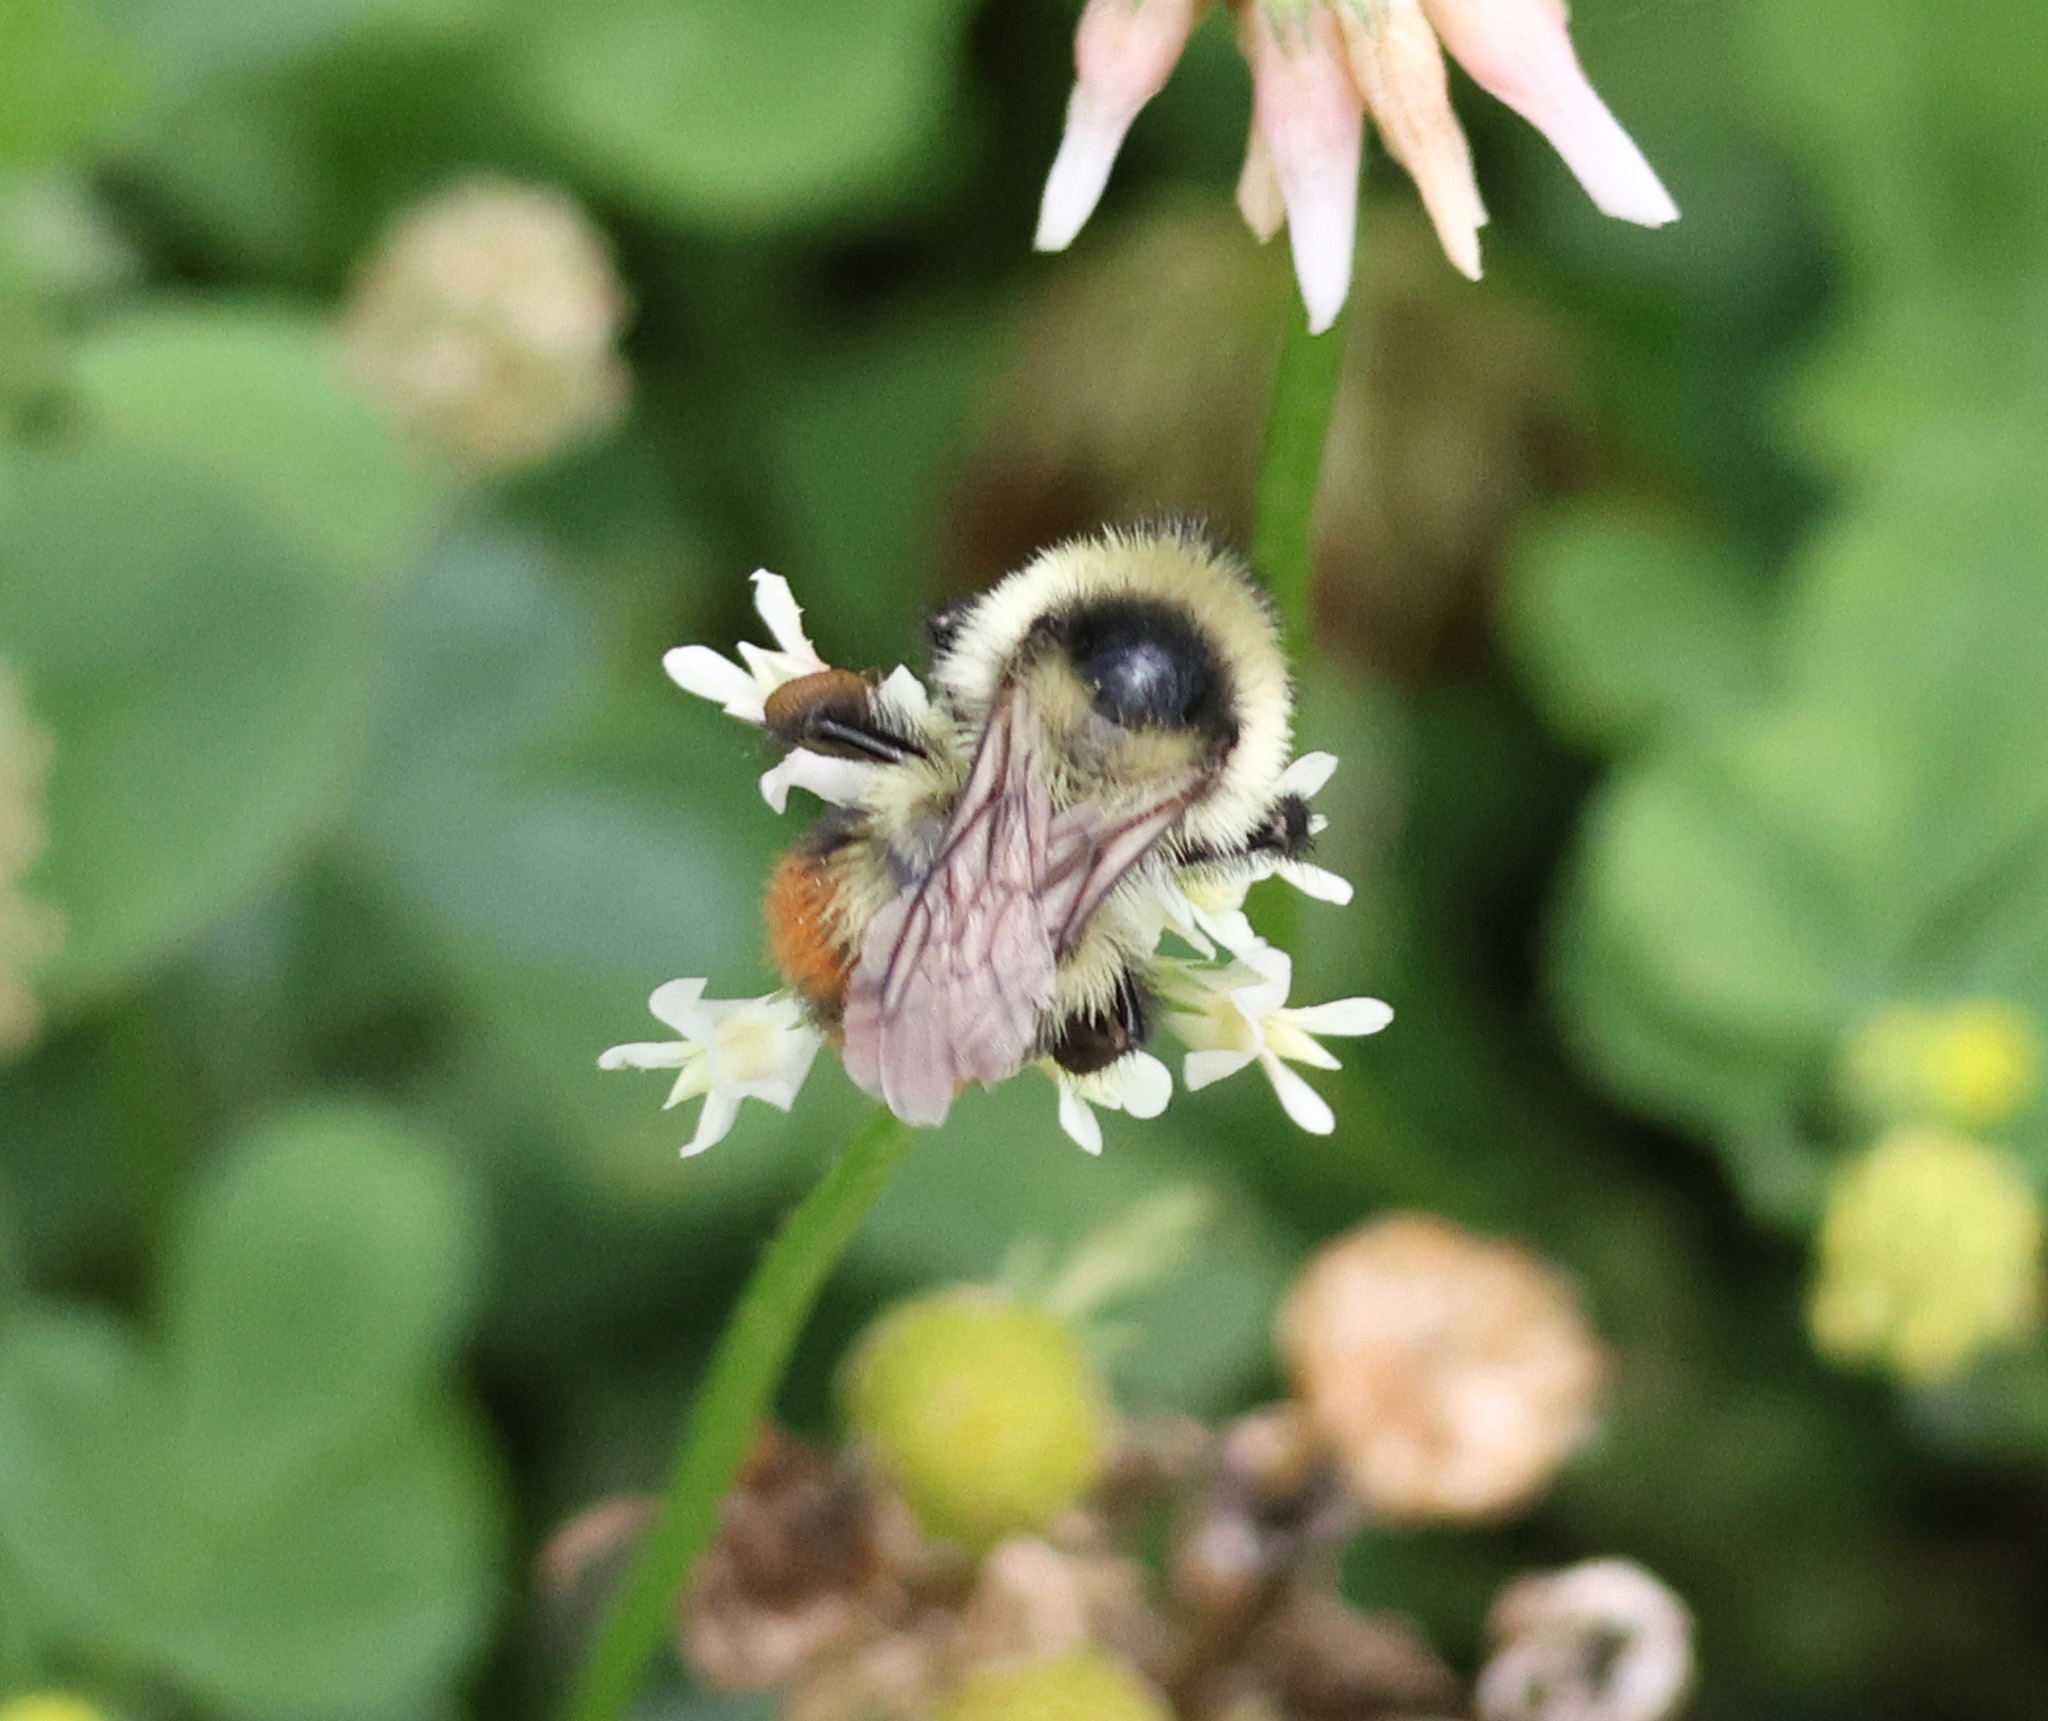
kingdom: Animalia
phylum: Arthropoda
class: Insecta
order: Hymenoptera
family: Apidae
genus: Bombus
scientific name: Bombus rufocinctus
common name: Red-belted bumble bee
